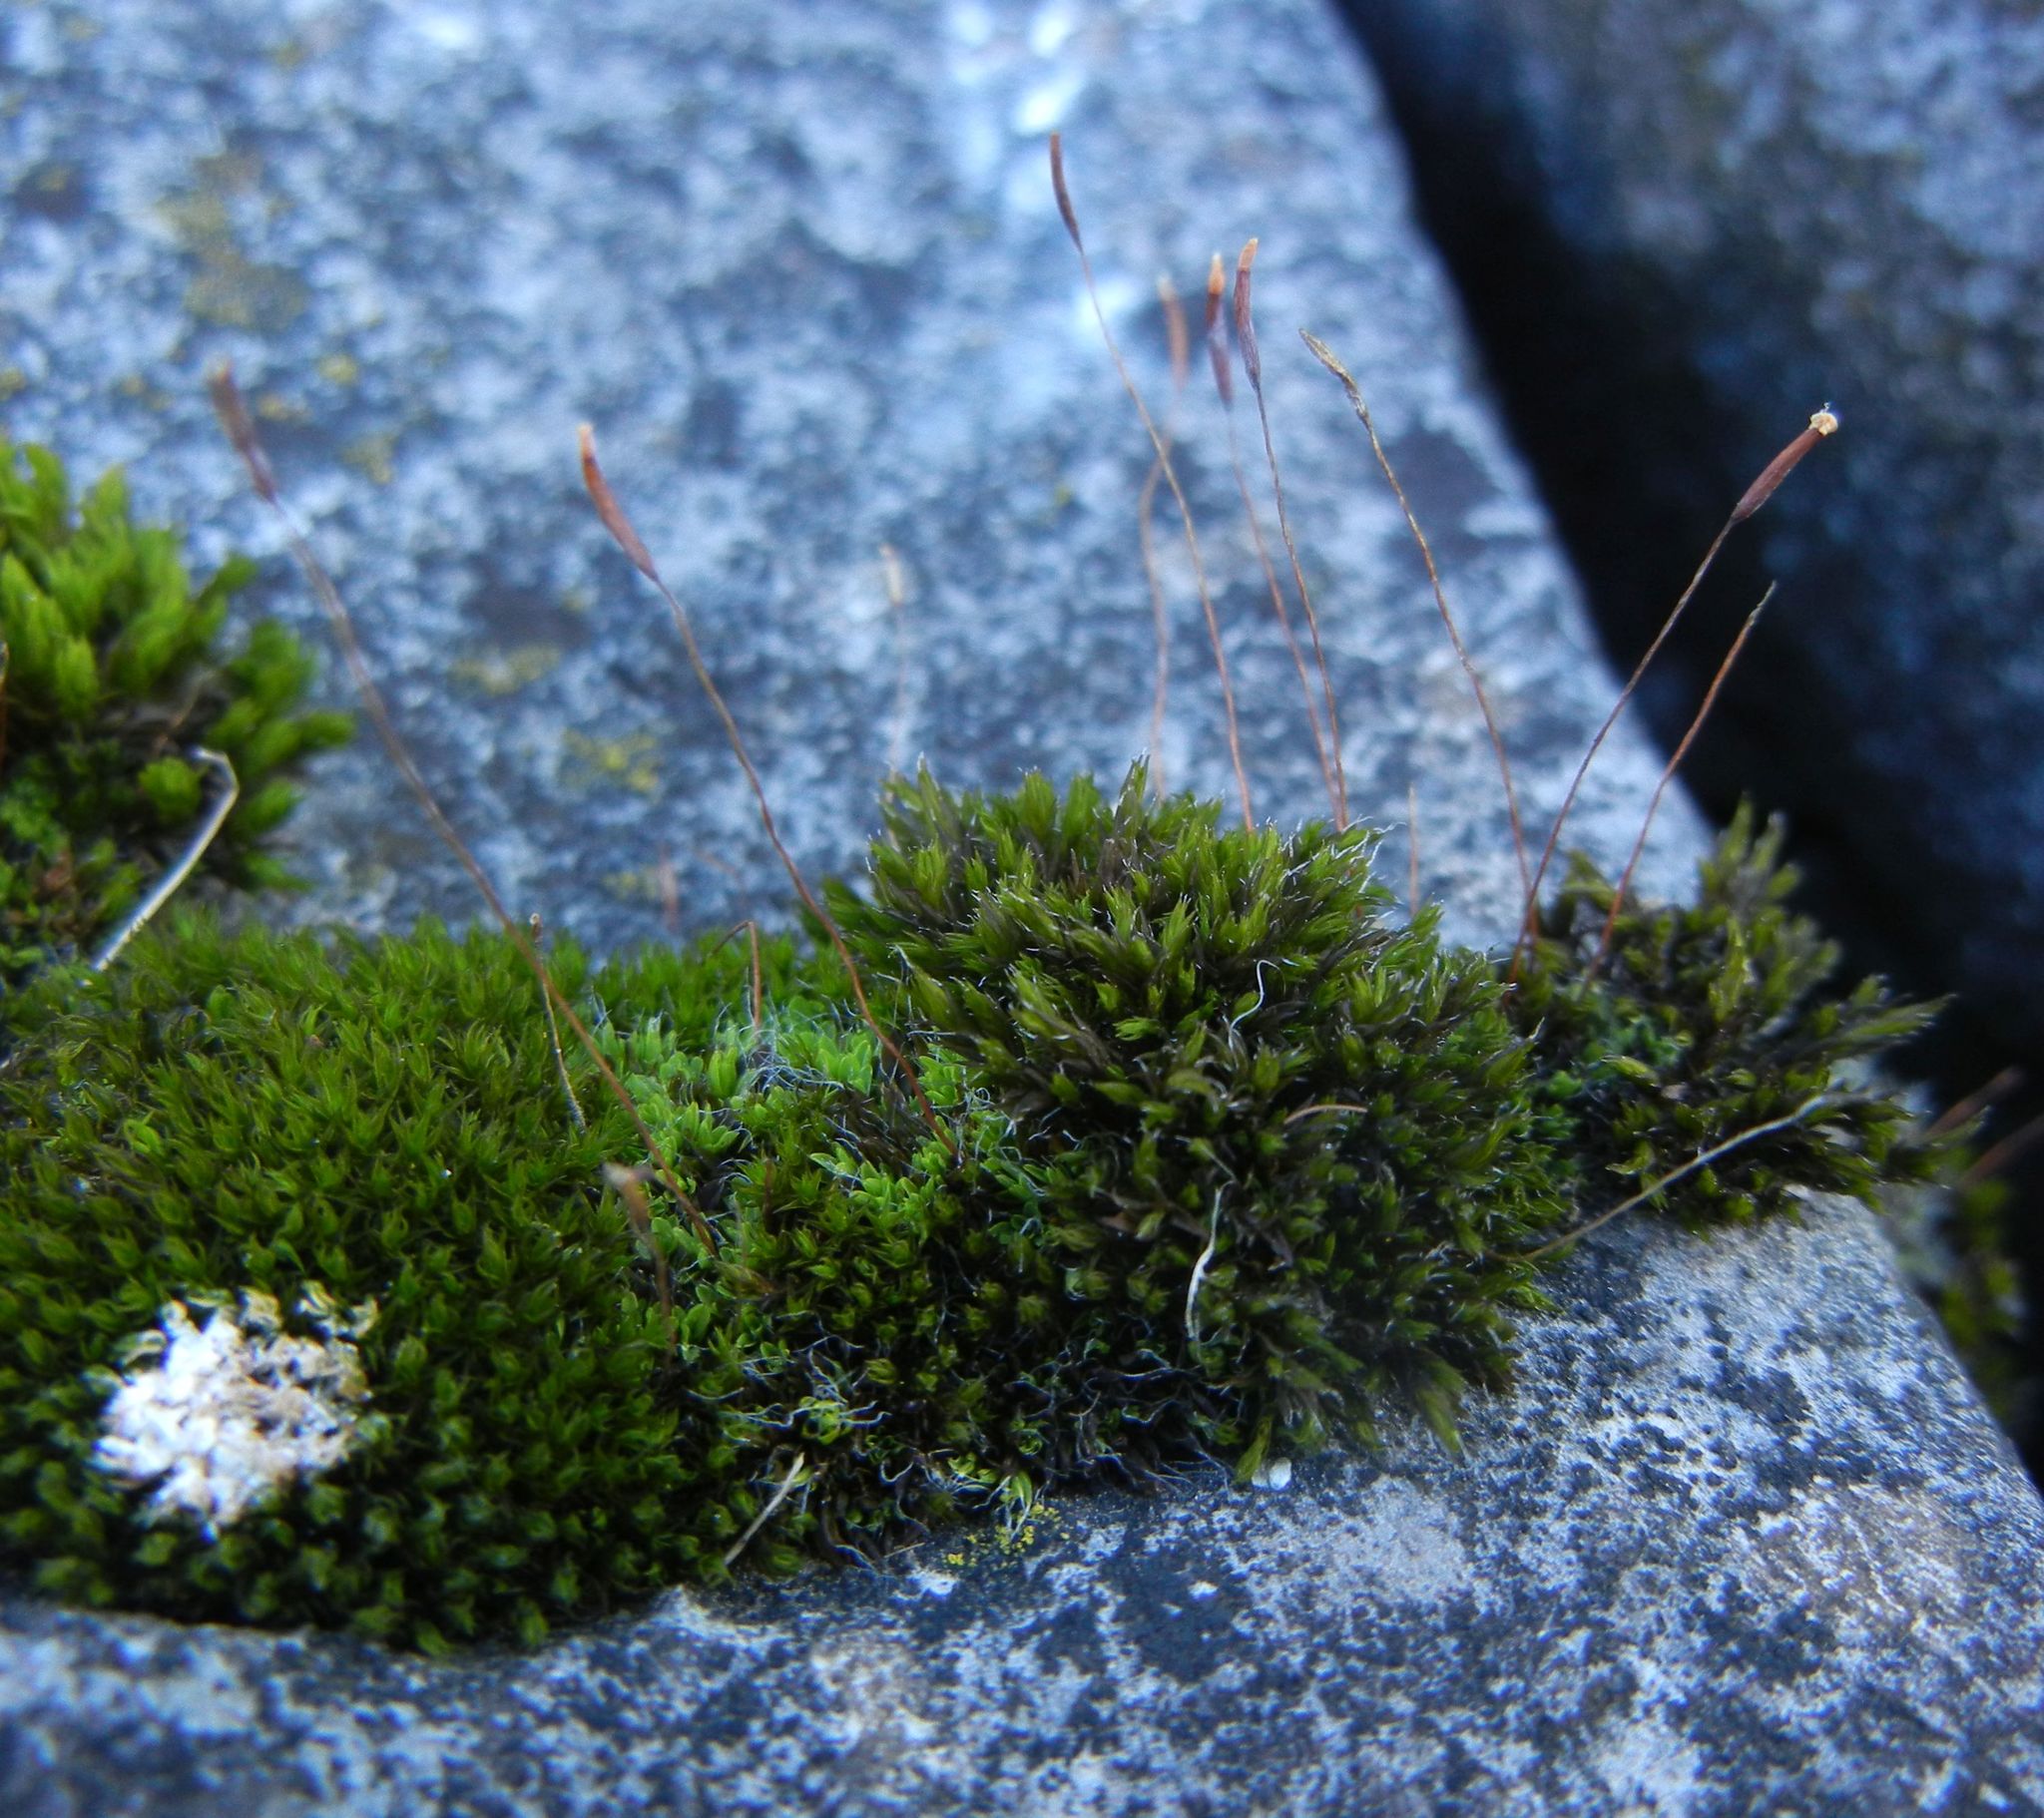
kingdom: Plantae
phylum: Bryophyta
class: Bryopsida
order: Pottiales
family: Pottiaceae
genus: Tortula
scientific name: Tortula muralis
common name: Wall screw-moss
